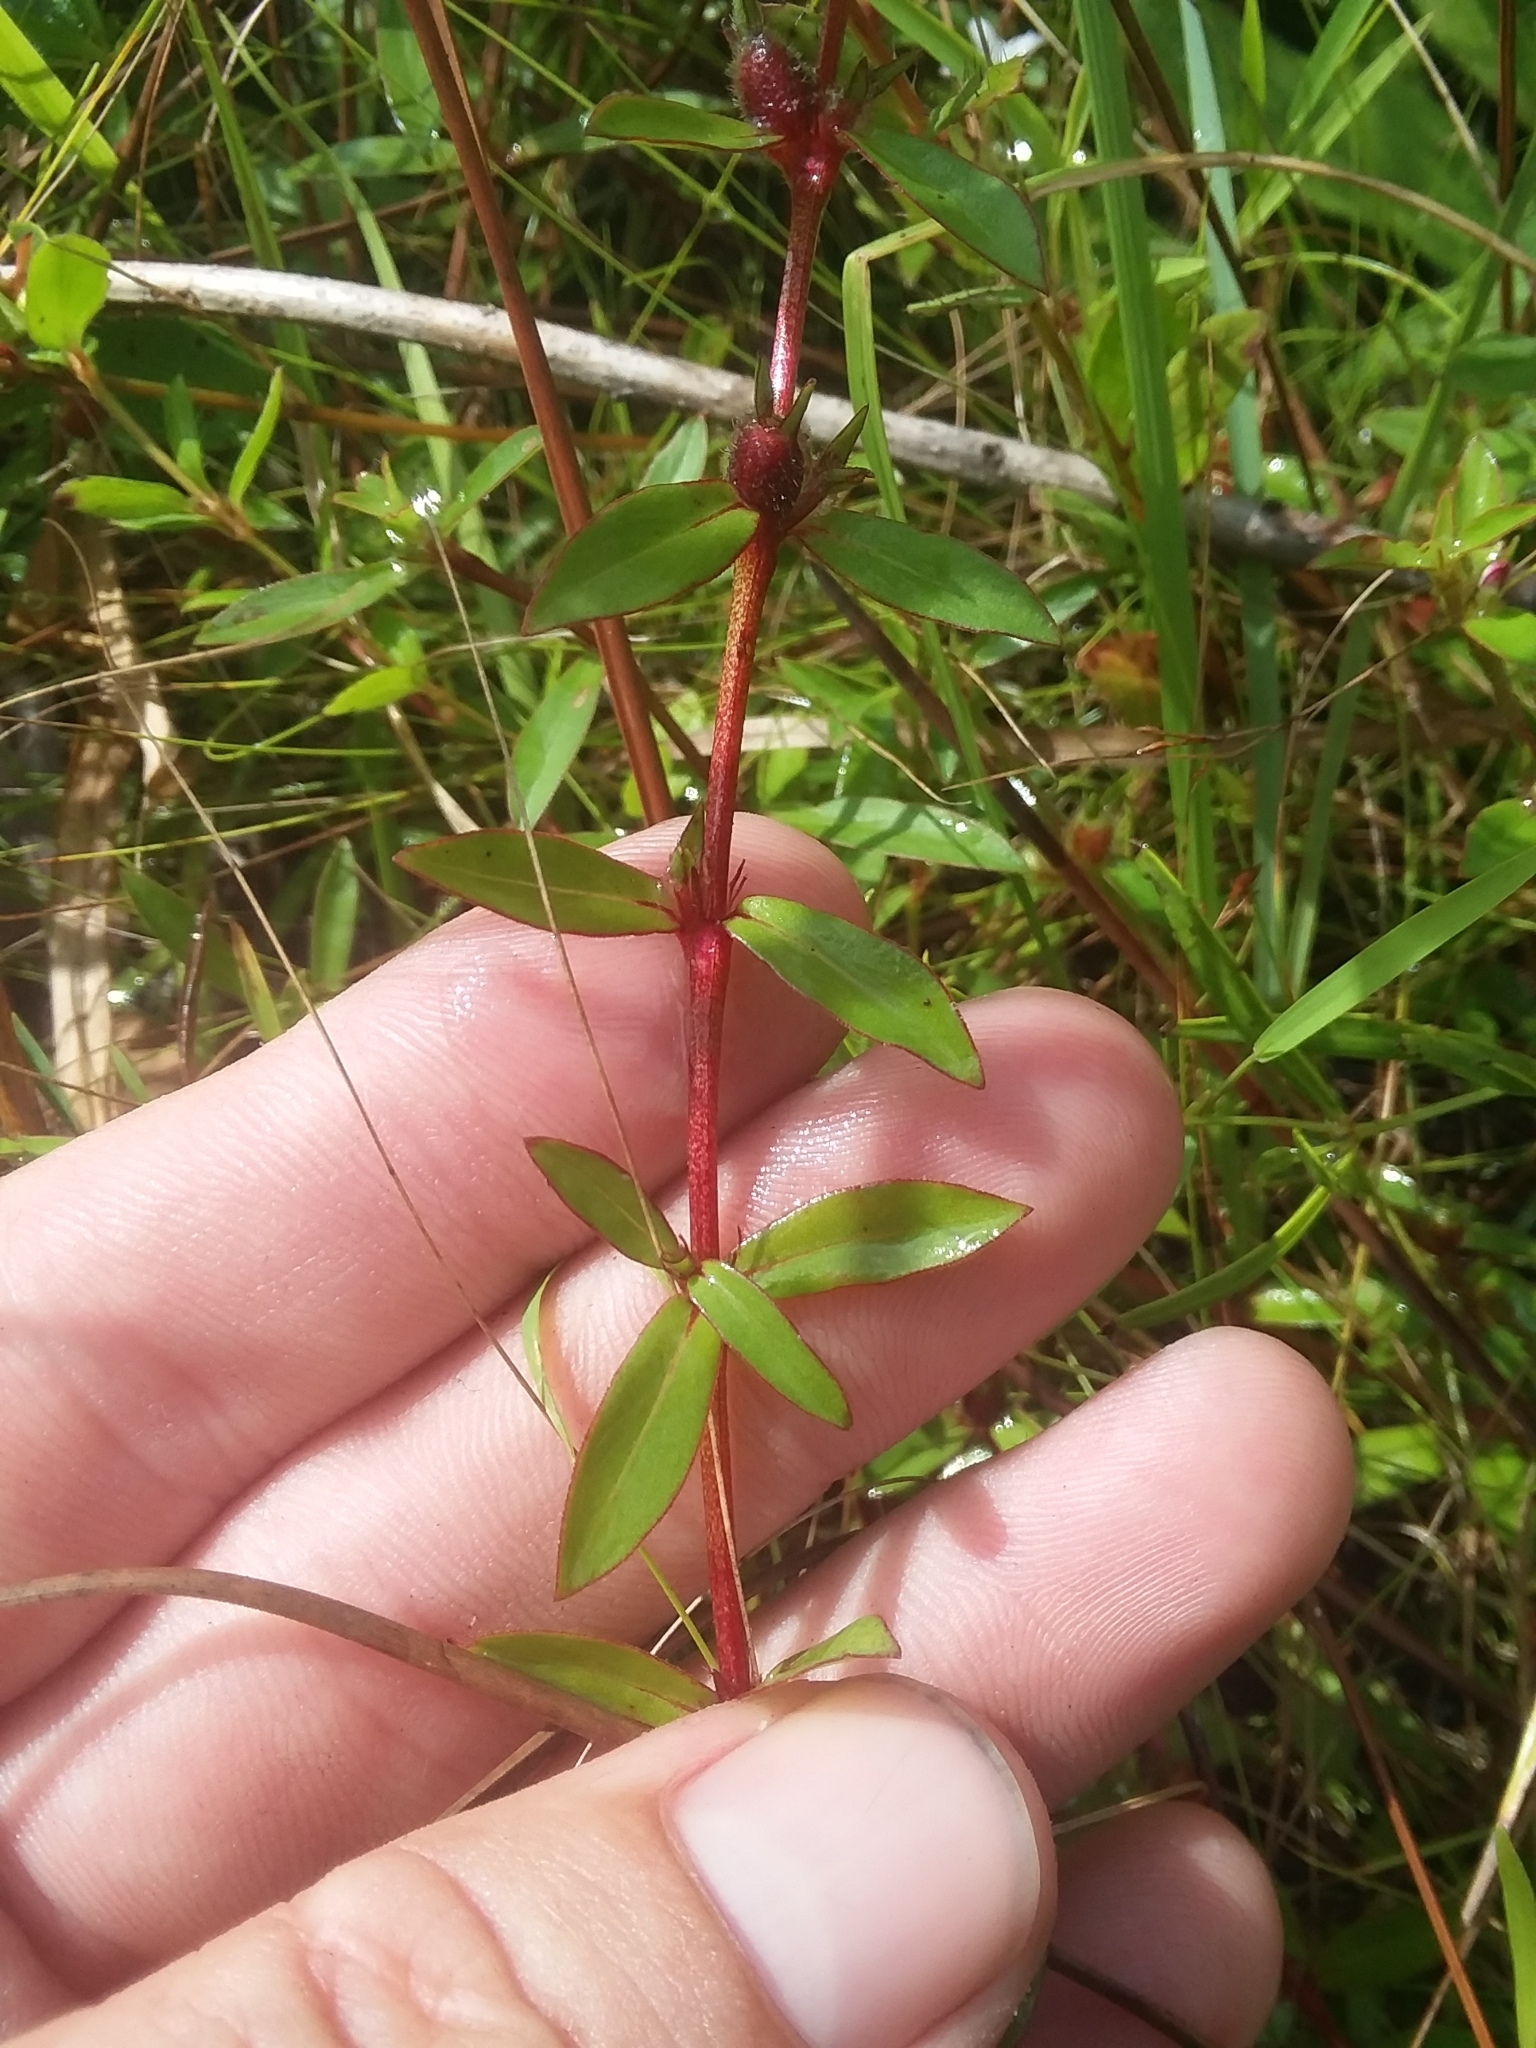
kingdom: Plantae
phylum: Tracheophyta
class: Magnoliopsida
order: Gentianales
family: Rubiaceae
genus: Diodia
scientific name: Diodia virginiana
